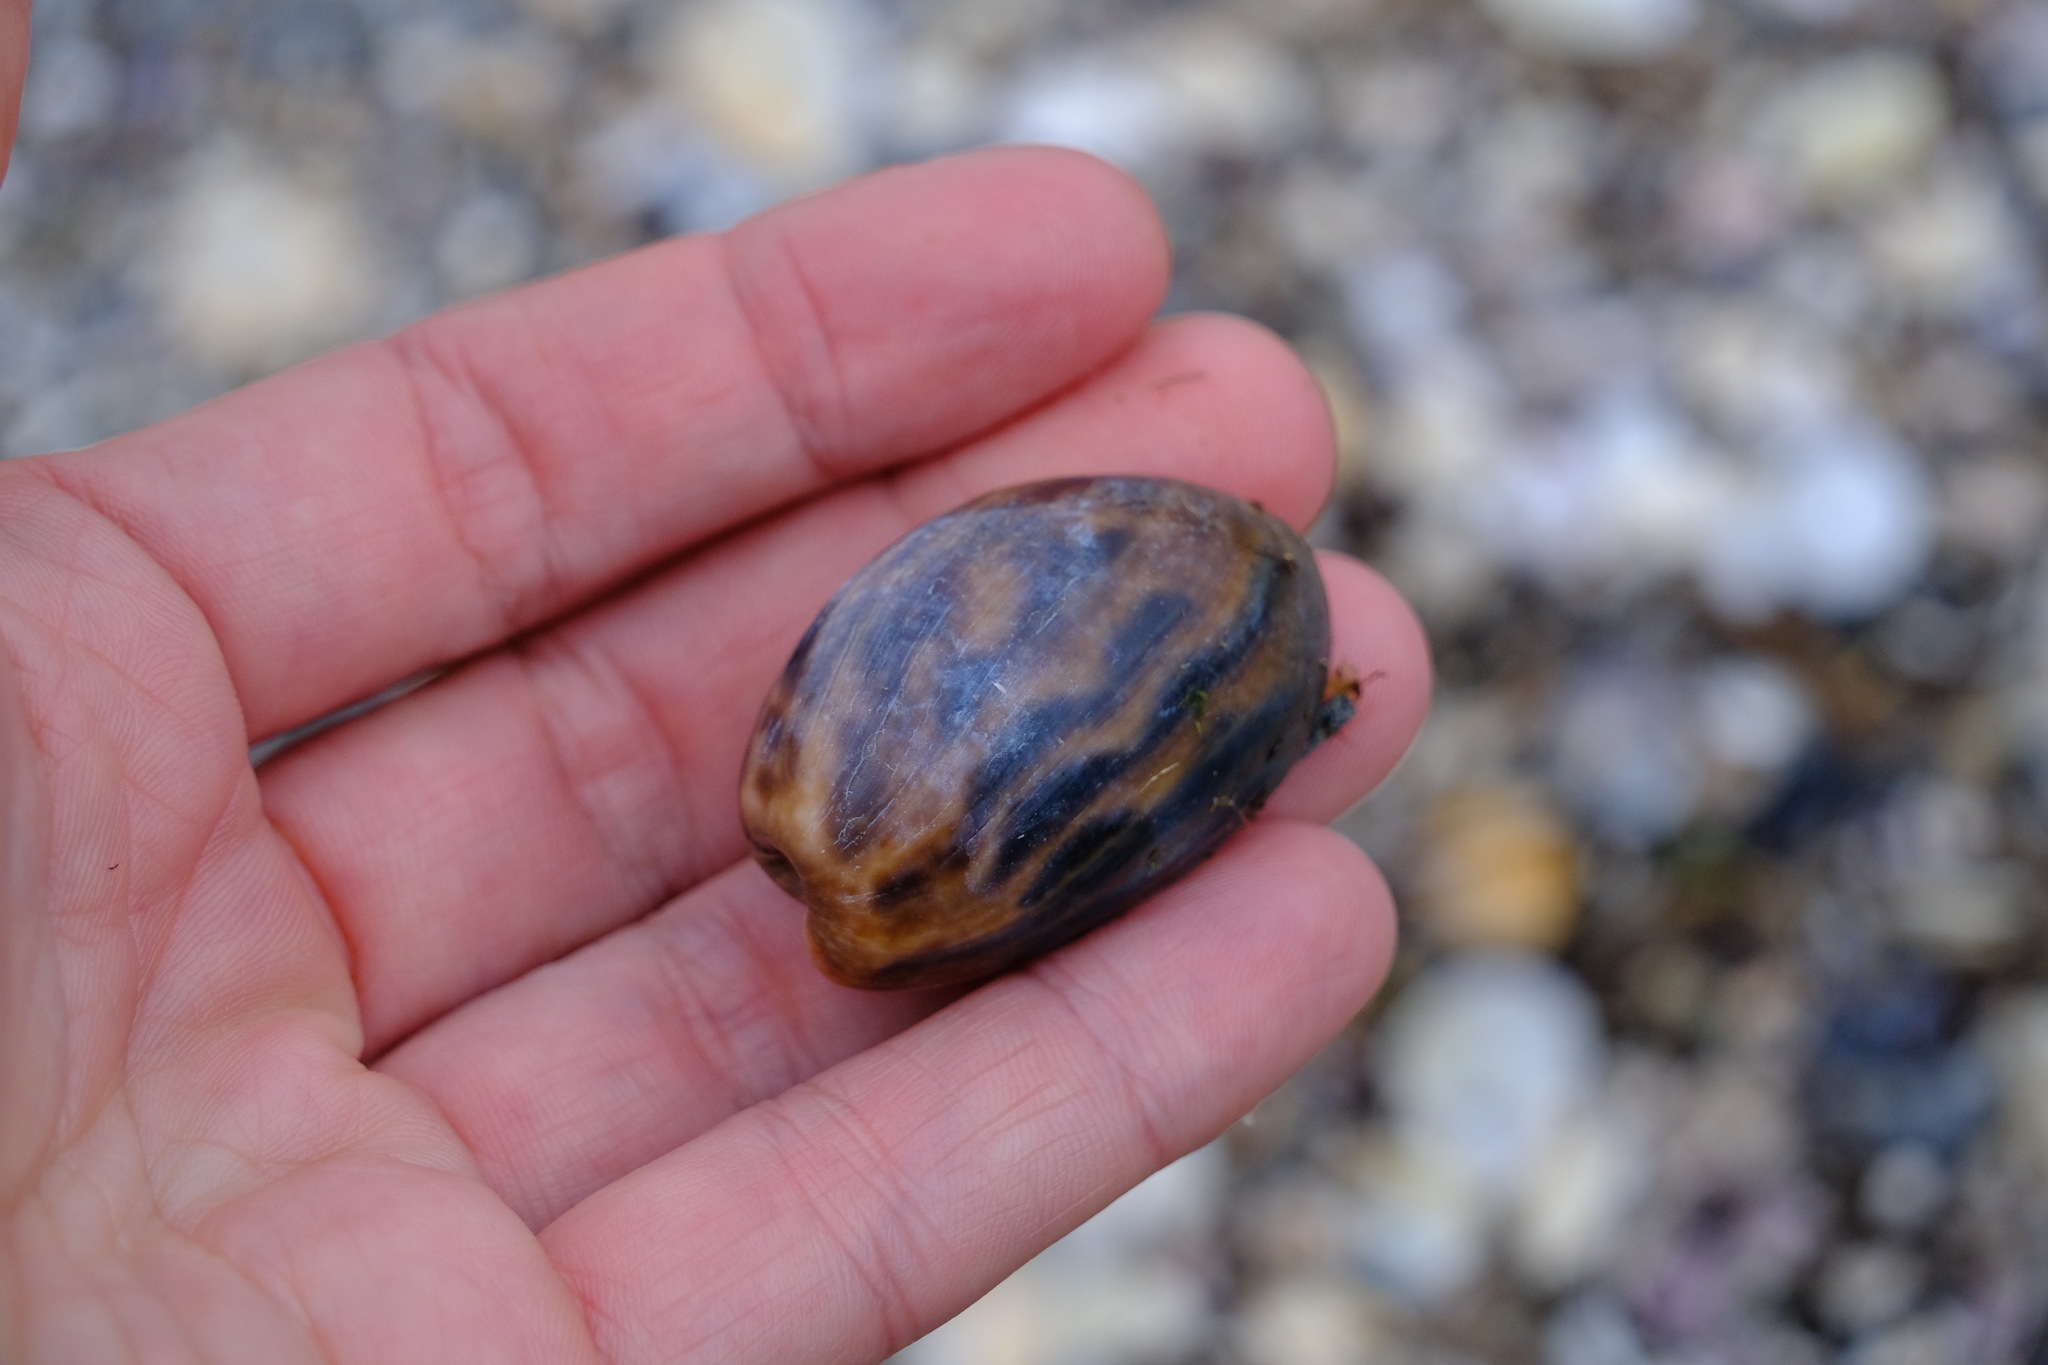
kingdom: Animalia
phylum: Mollusca
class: Gastropoda
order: Cephalaspidea
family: Bullidae
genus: Bulla
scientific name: Bulla quoyii
